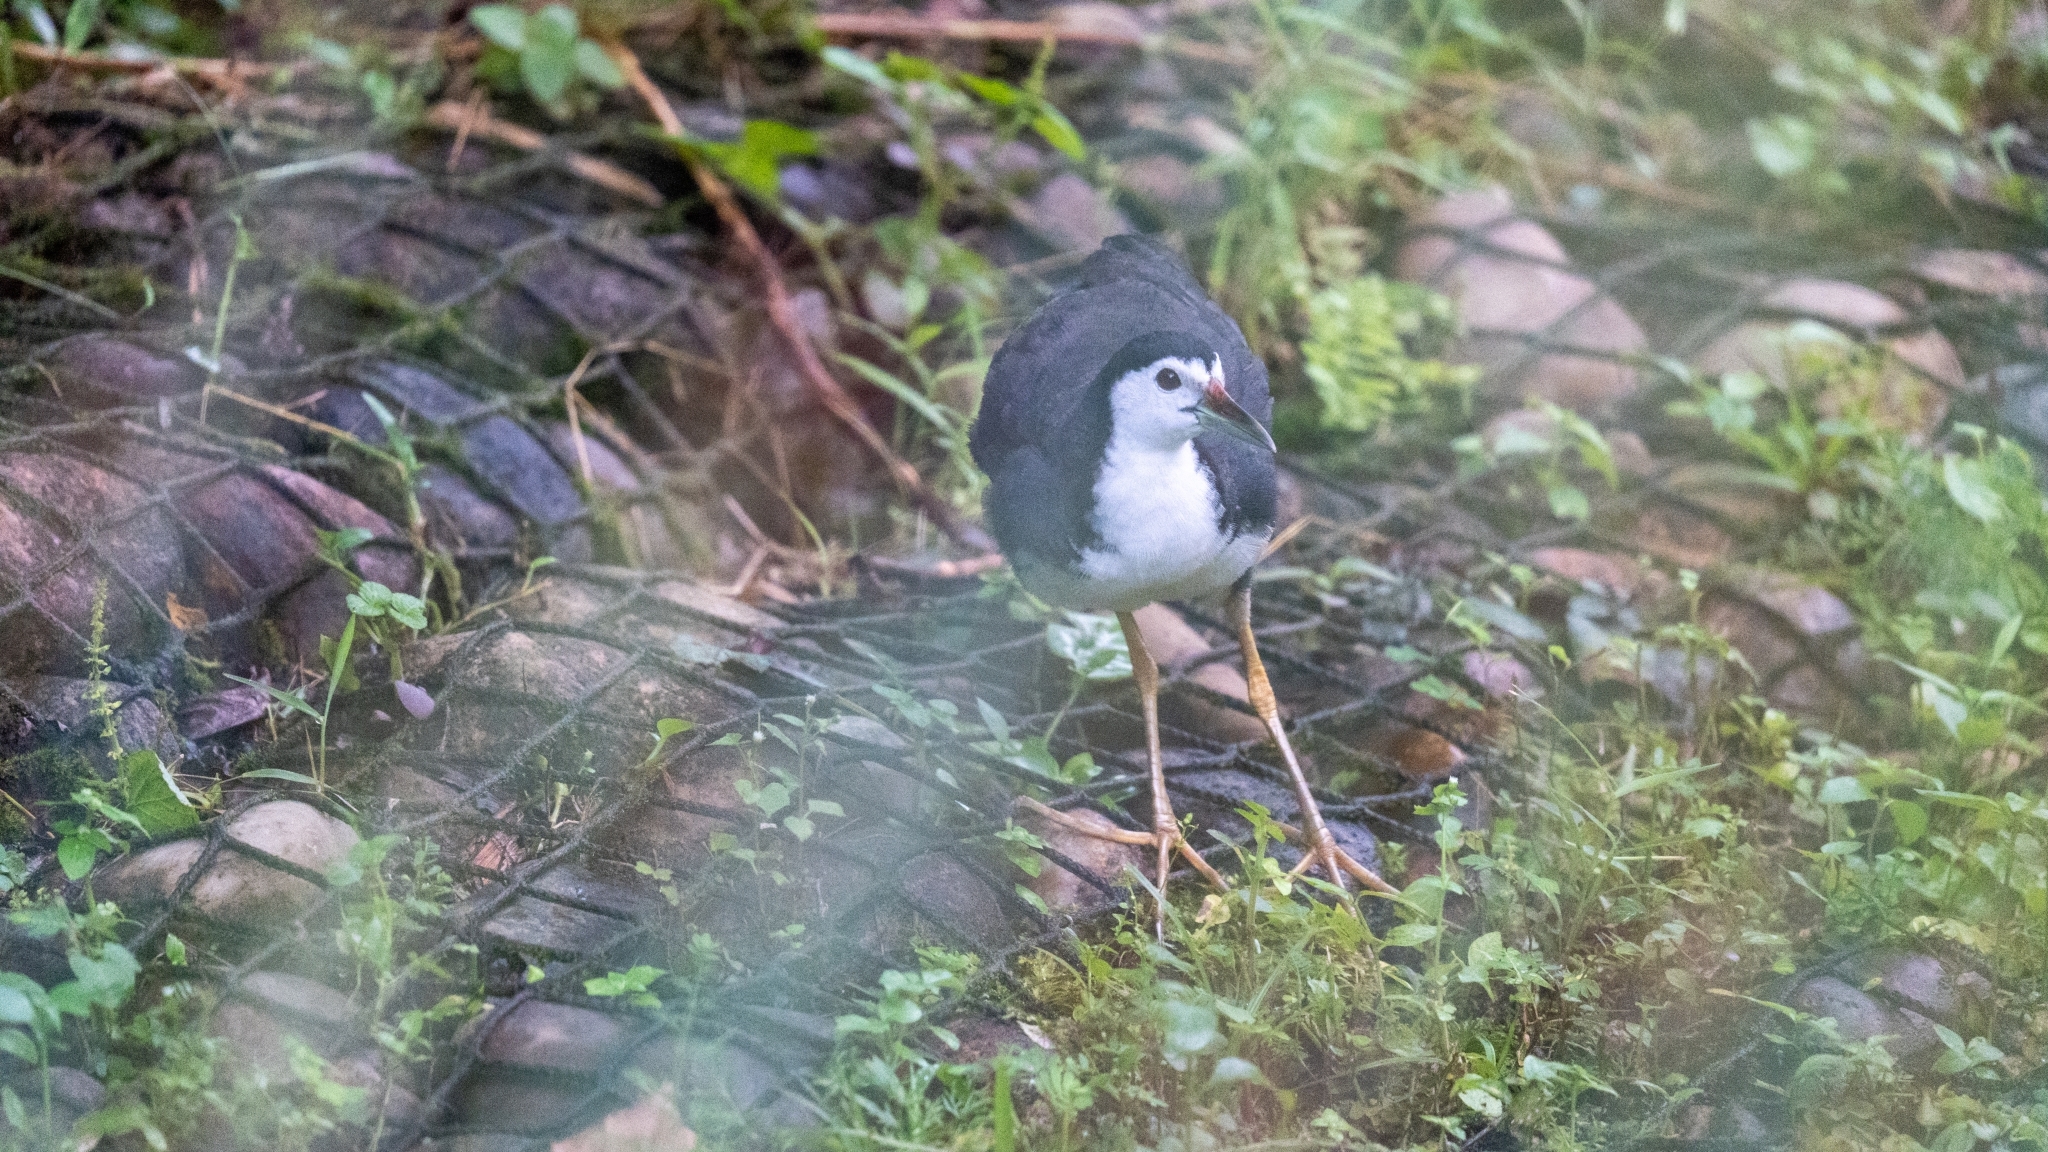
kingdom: Animalia
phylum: Chordata
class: Aves
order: Gruiformes
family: Rallidae
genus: Amaurornis
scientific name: Amaurornis phoenicurus
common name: White-breasted waterhen
